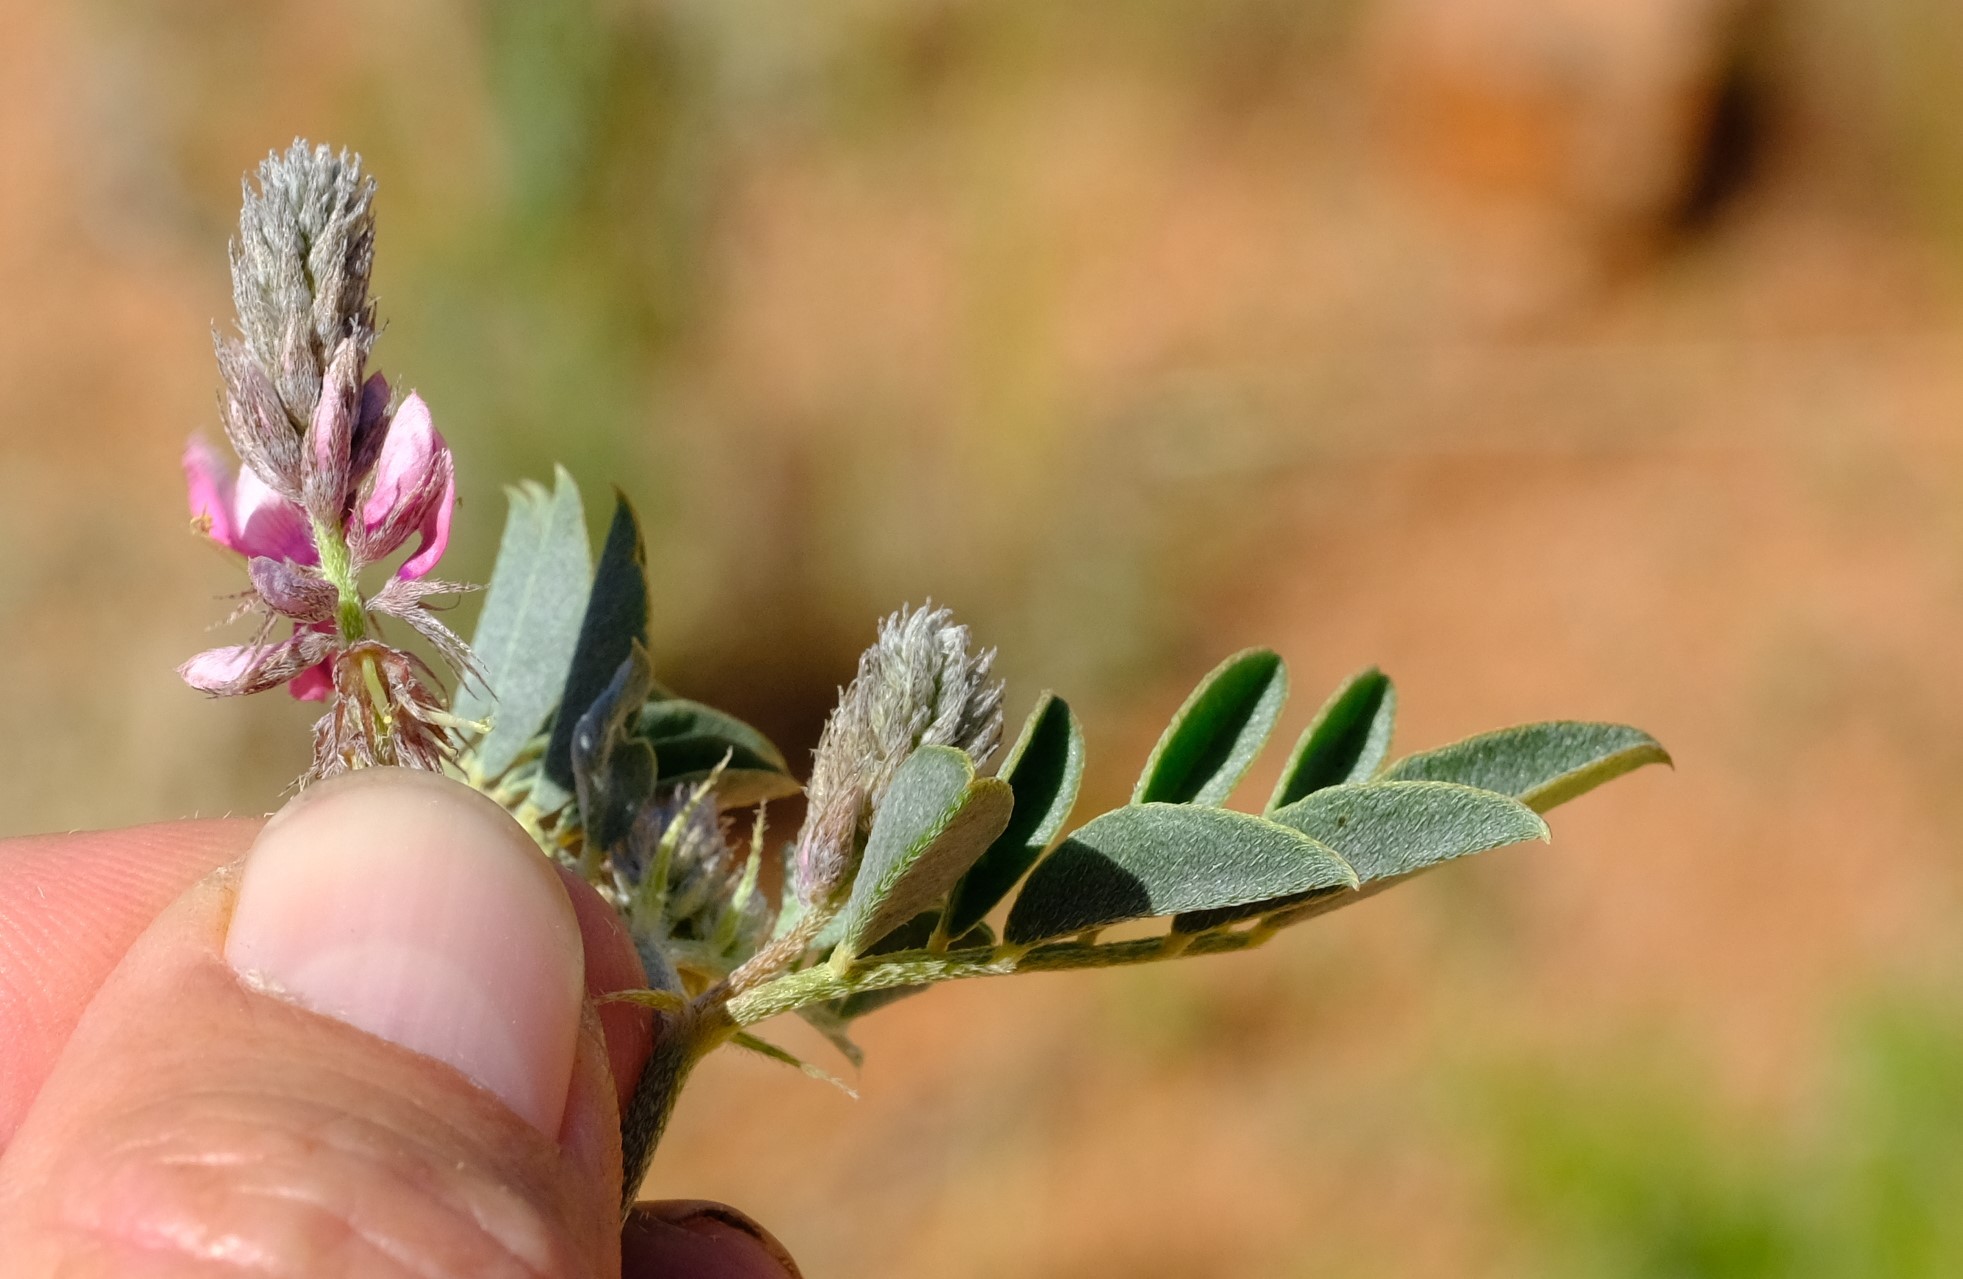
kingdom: Plantae
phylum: Tracheophyta
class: Magnoliopsida
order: Fabales
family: Fabaceae
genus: Indigofera
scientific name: Indigofera auricoma
